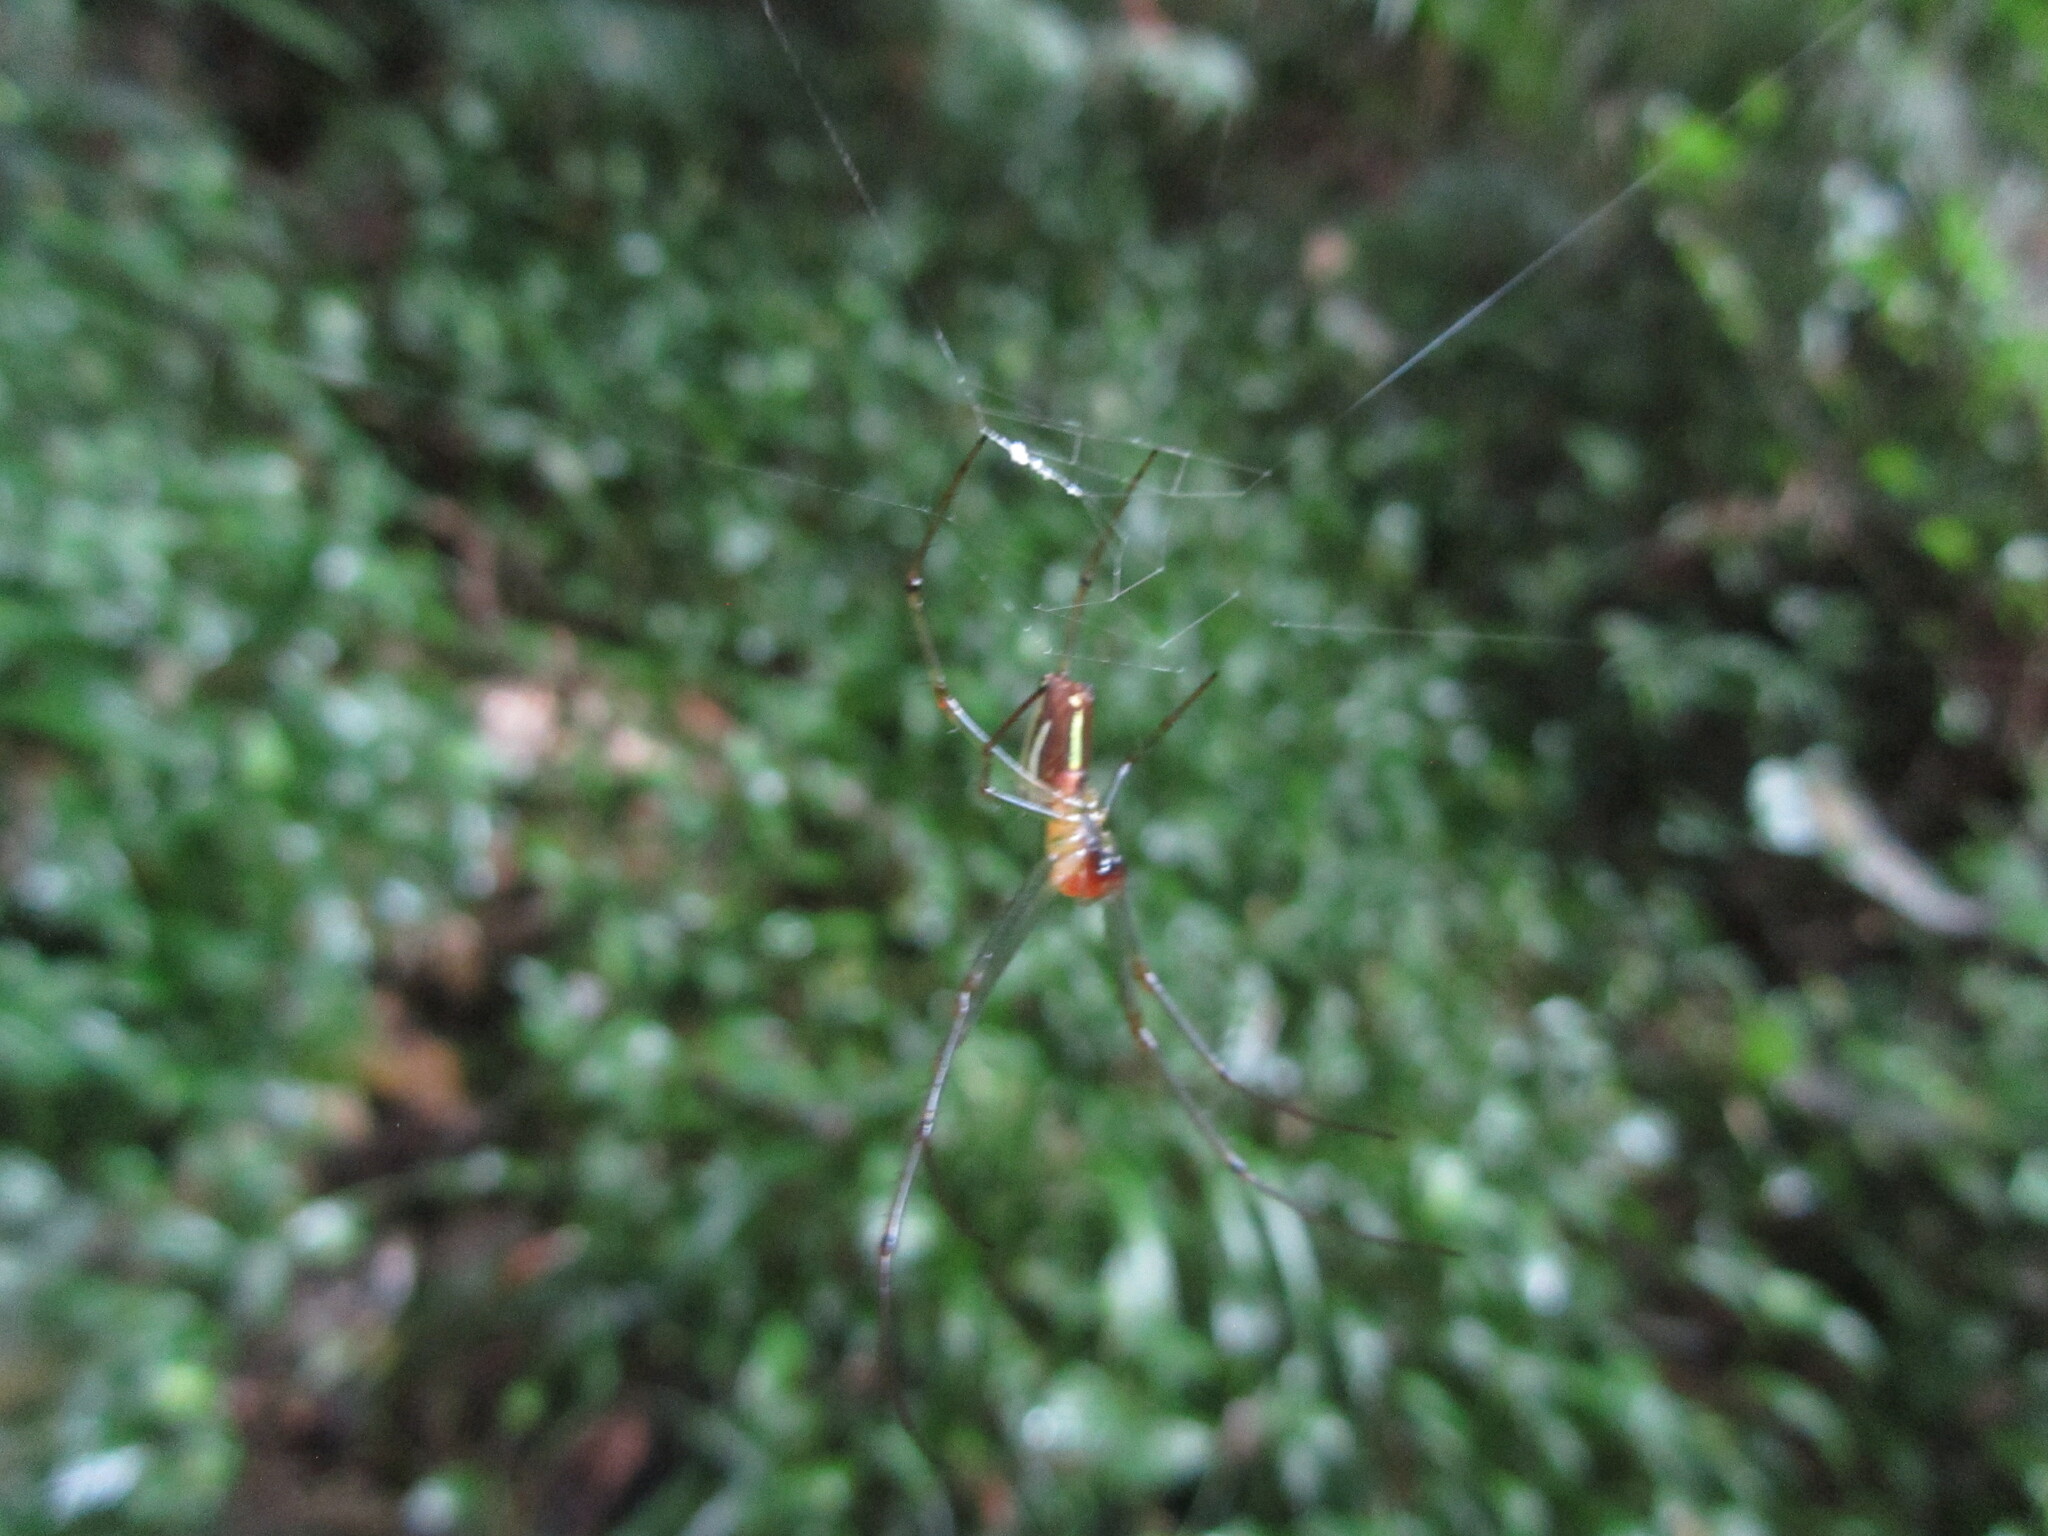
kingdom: Animalia
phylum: Arthropoda
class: Arachnida
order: Araneae
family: Tetragnathidae
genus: Leucauge
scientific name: Leucauge
